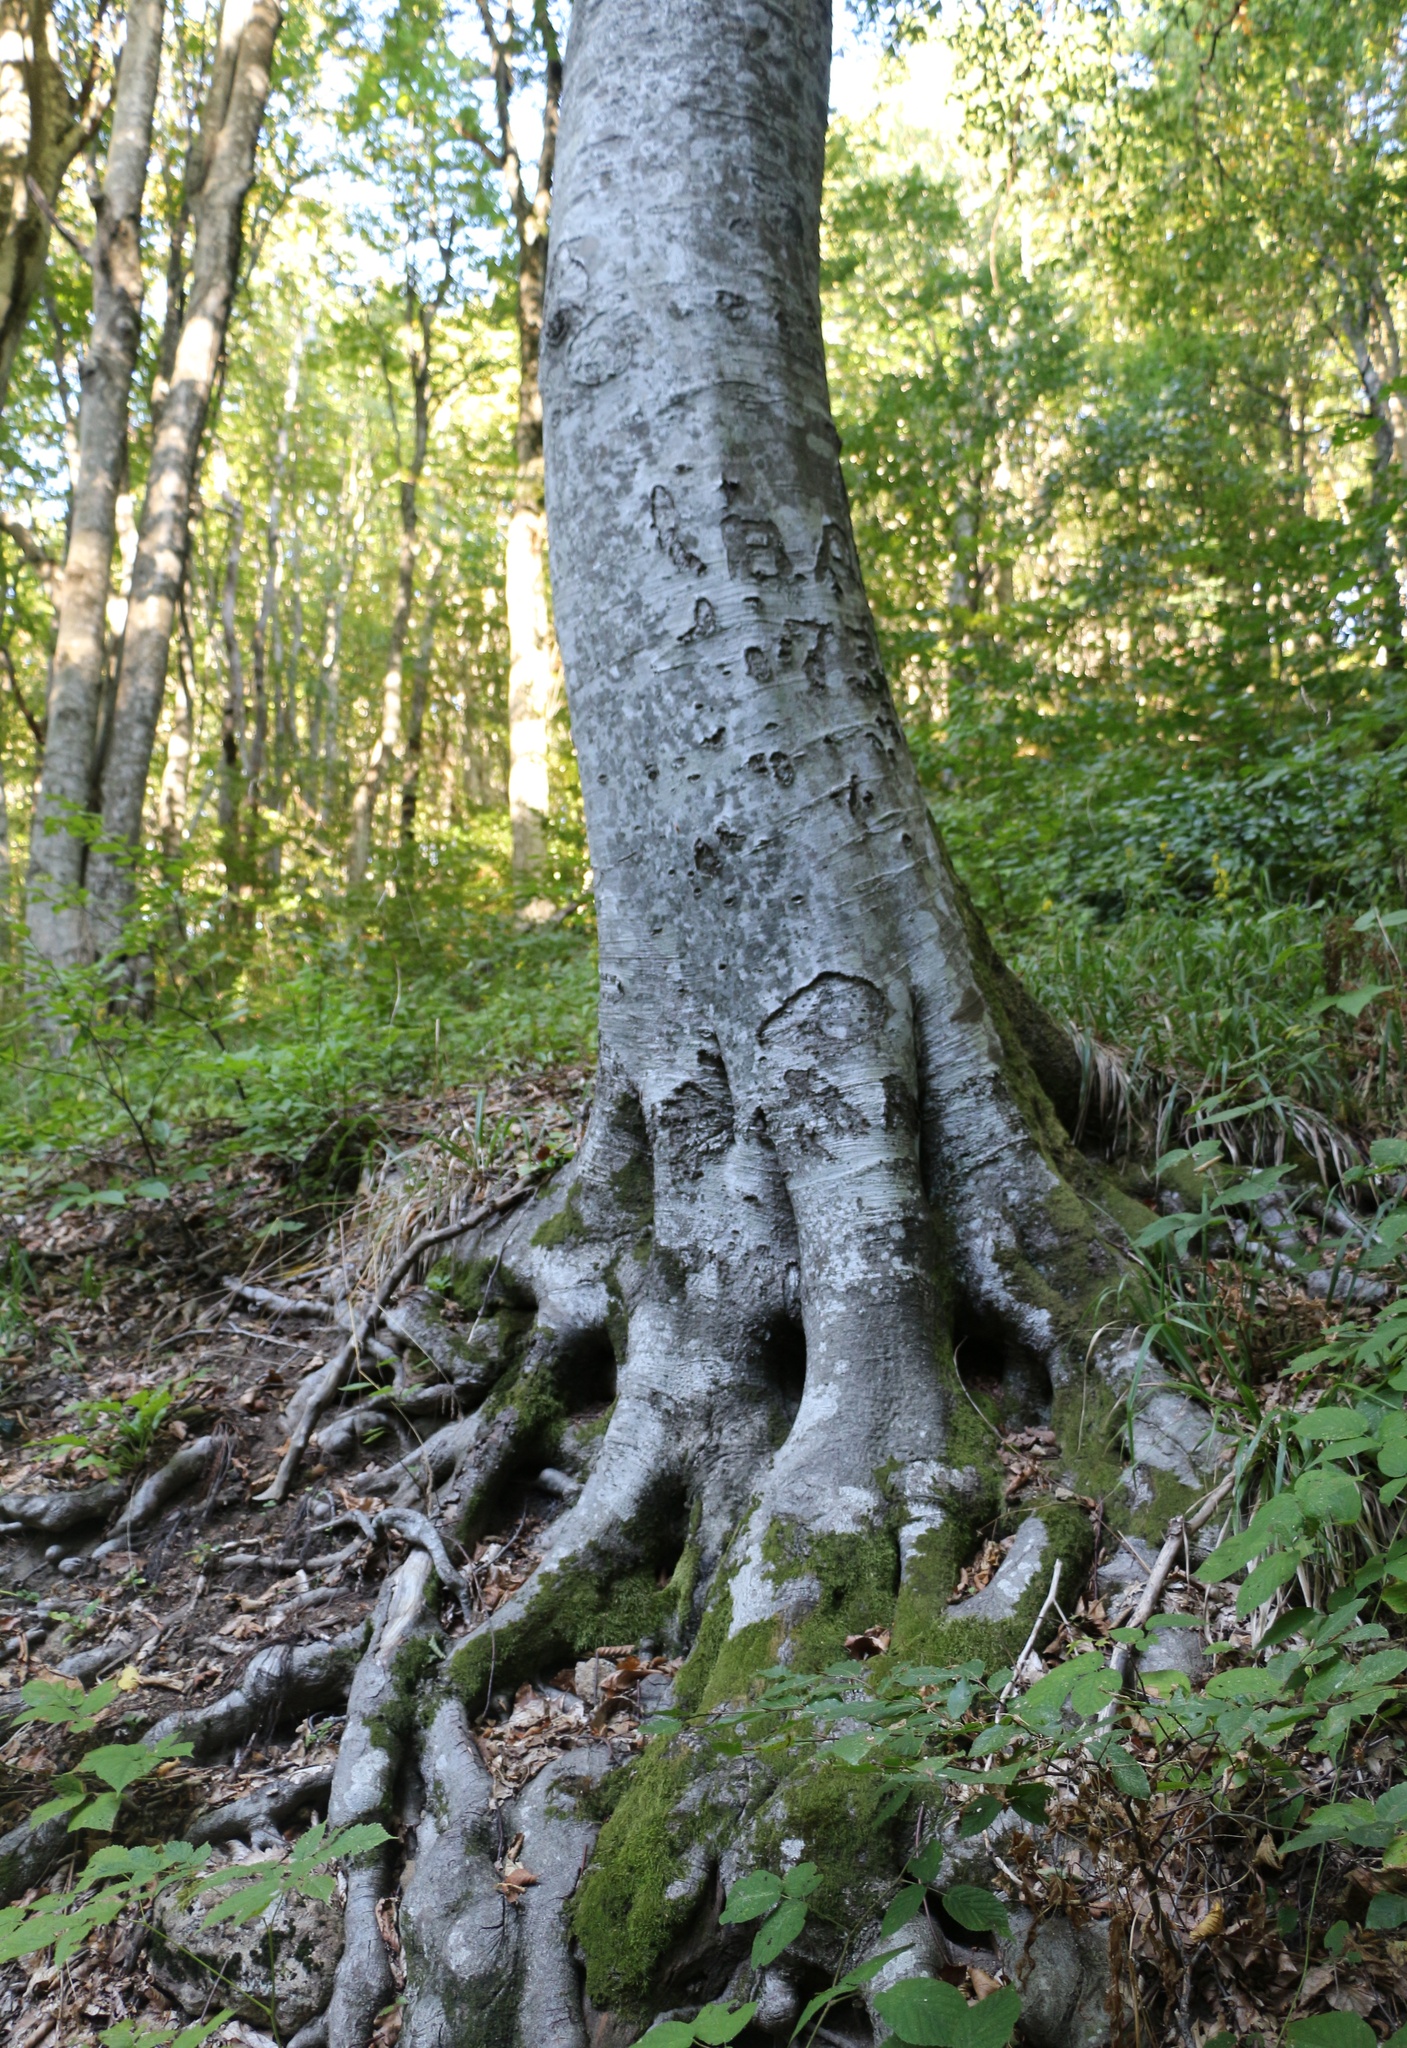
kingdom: Plantae
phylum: Tracheophyta
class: Magnoliopsida
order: Fagales
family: Fagaceae
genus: Fagus
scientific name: Fagus orientalis
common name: Oriental beech
